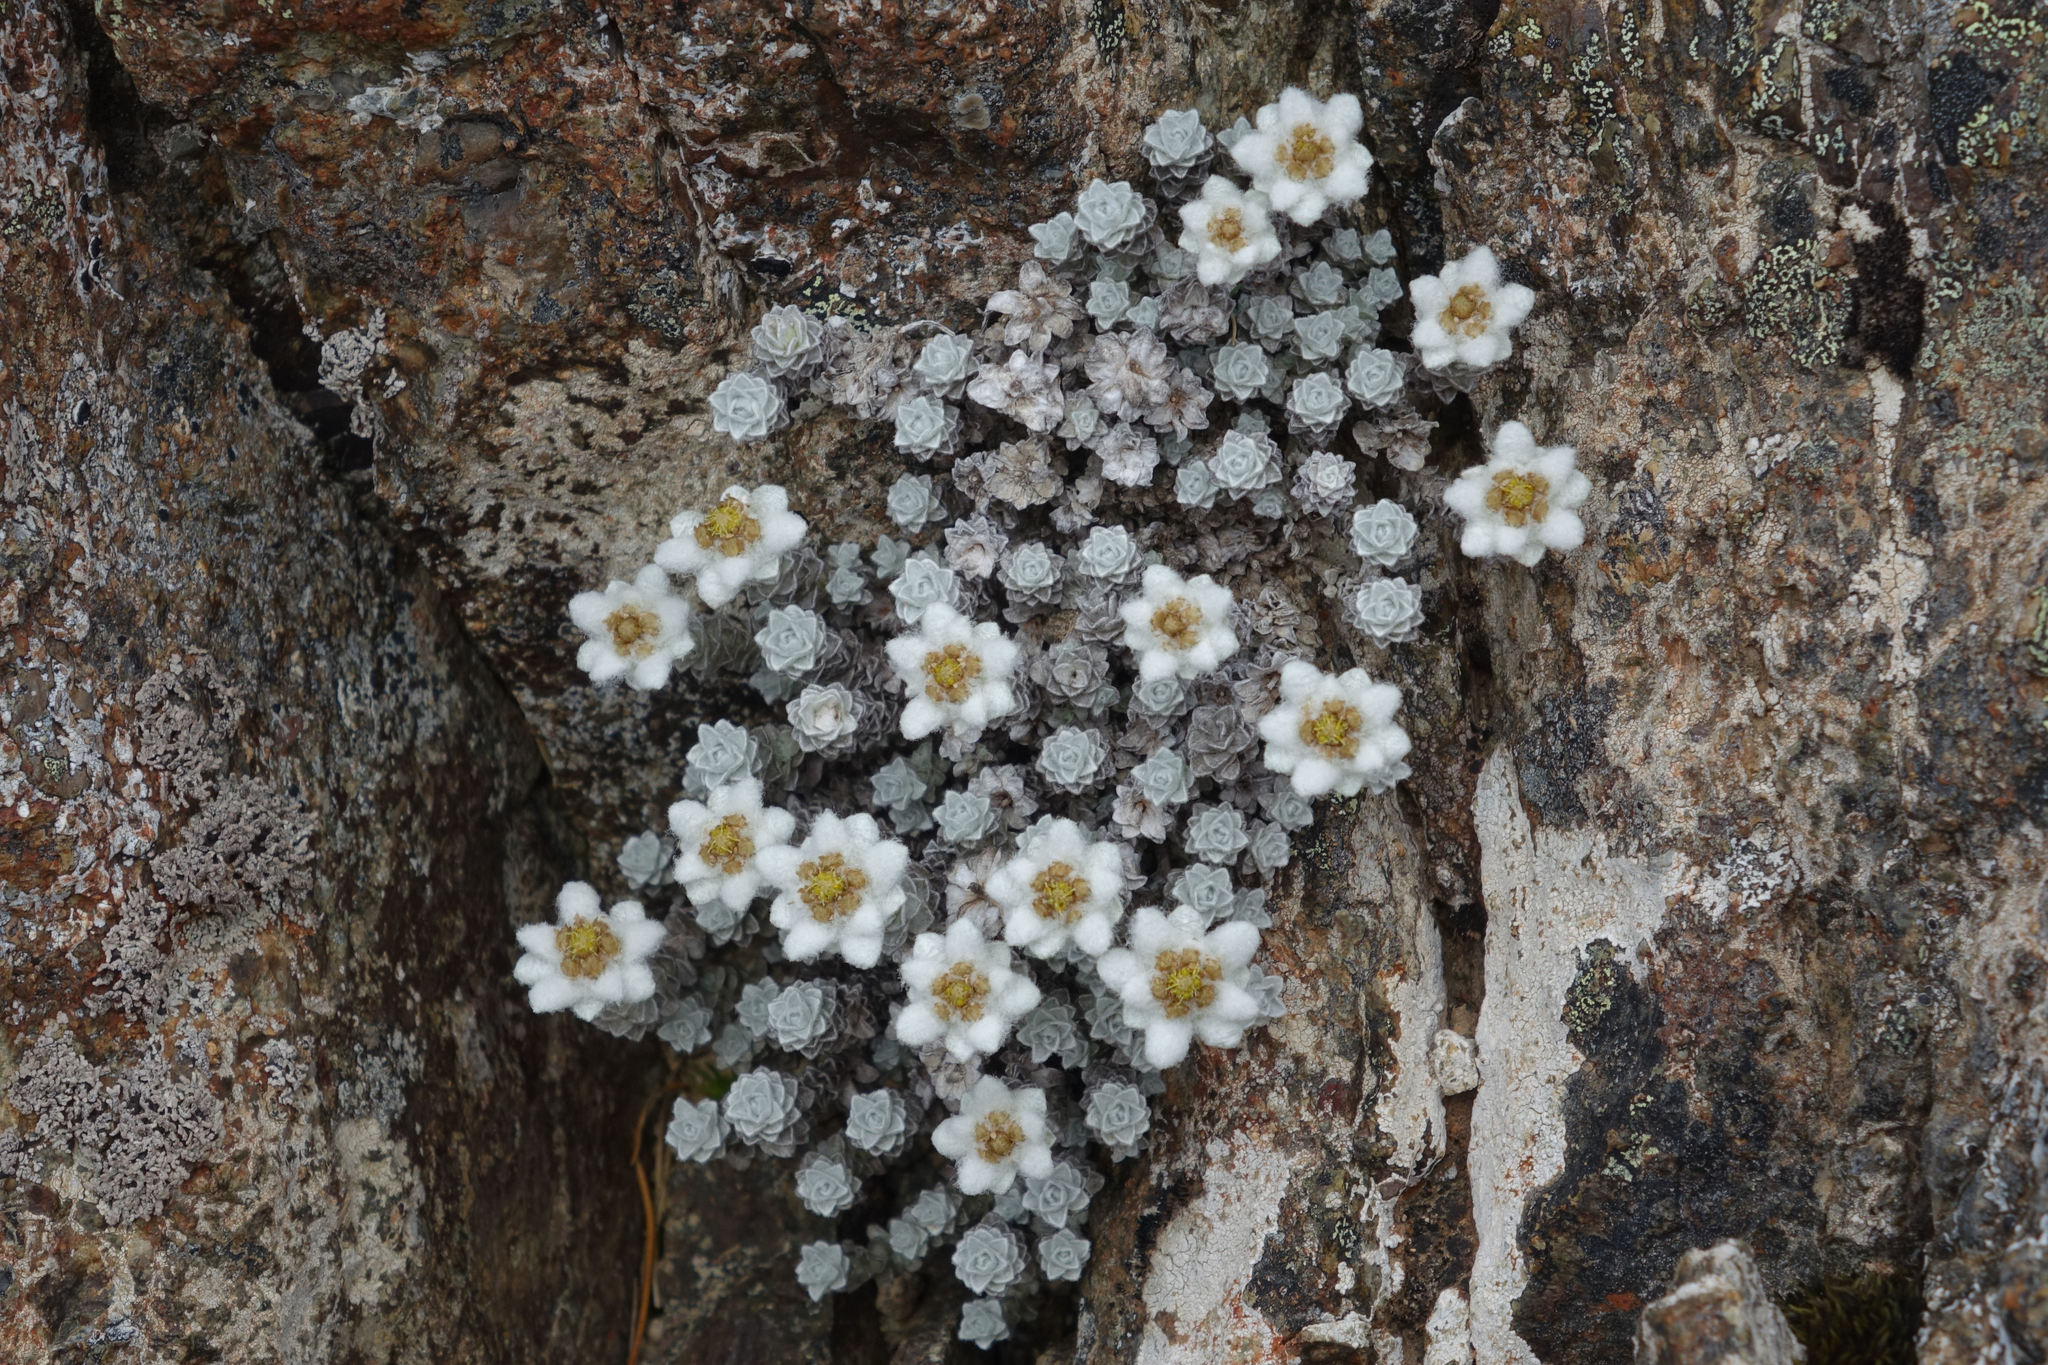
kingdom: Plantae
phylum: Tracheophyta
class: Magnoliopsida
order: Asterales
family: Asteraceae
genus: Leucogenes
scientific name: Leucogenes grandiceps
